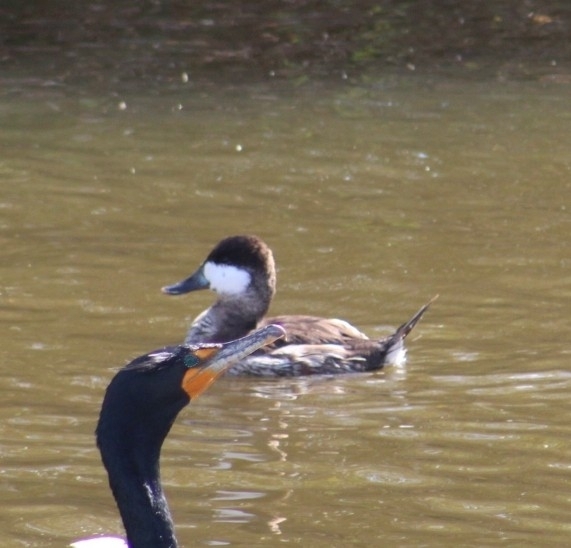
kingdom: Animalia
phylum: Chordata
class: Aves
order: Anseriformes
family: Anatidae
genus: Oxyura
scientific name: Oxyura jamaicensis
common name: Ruddy duck
